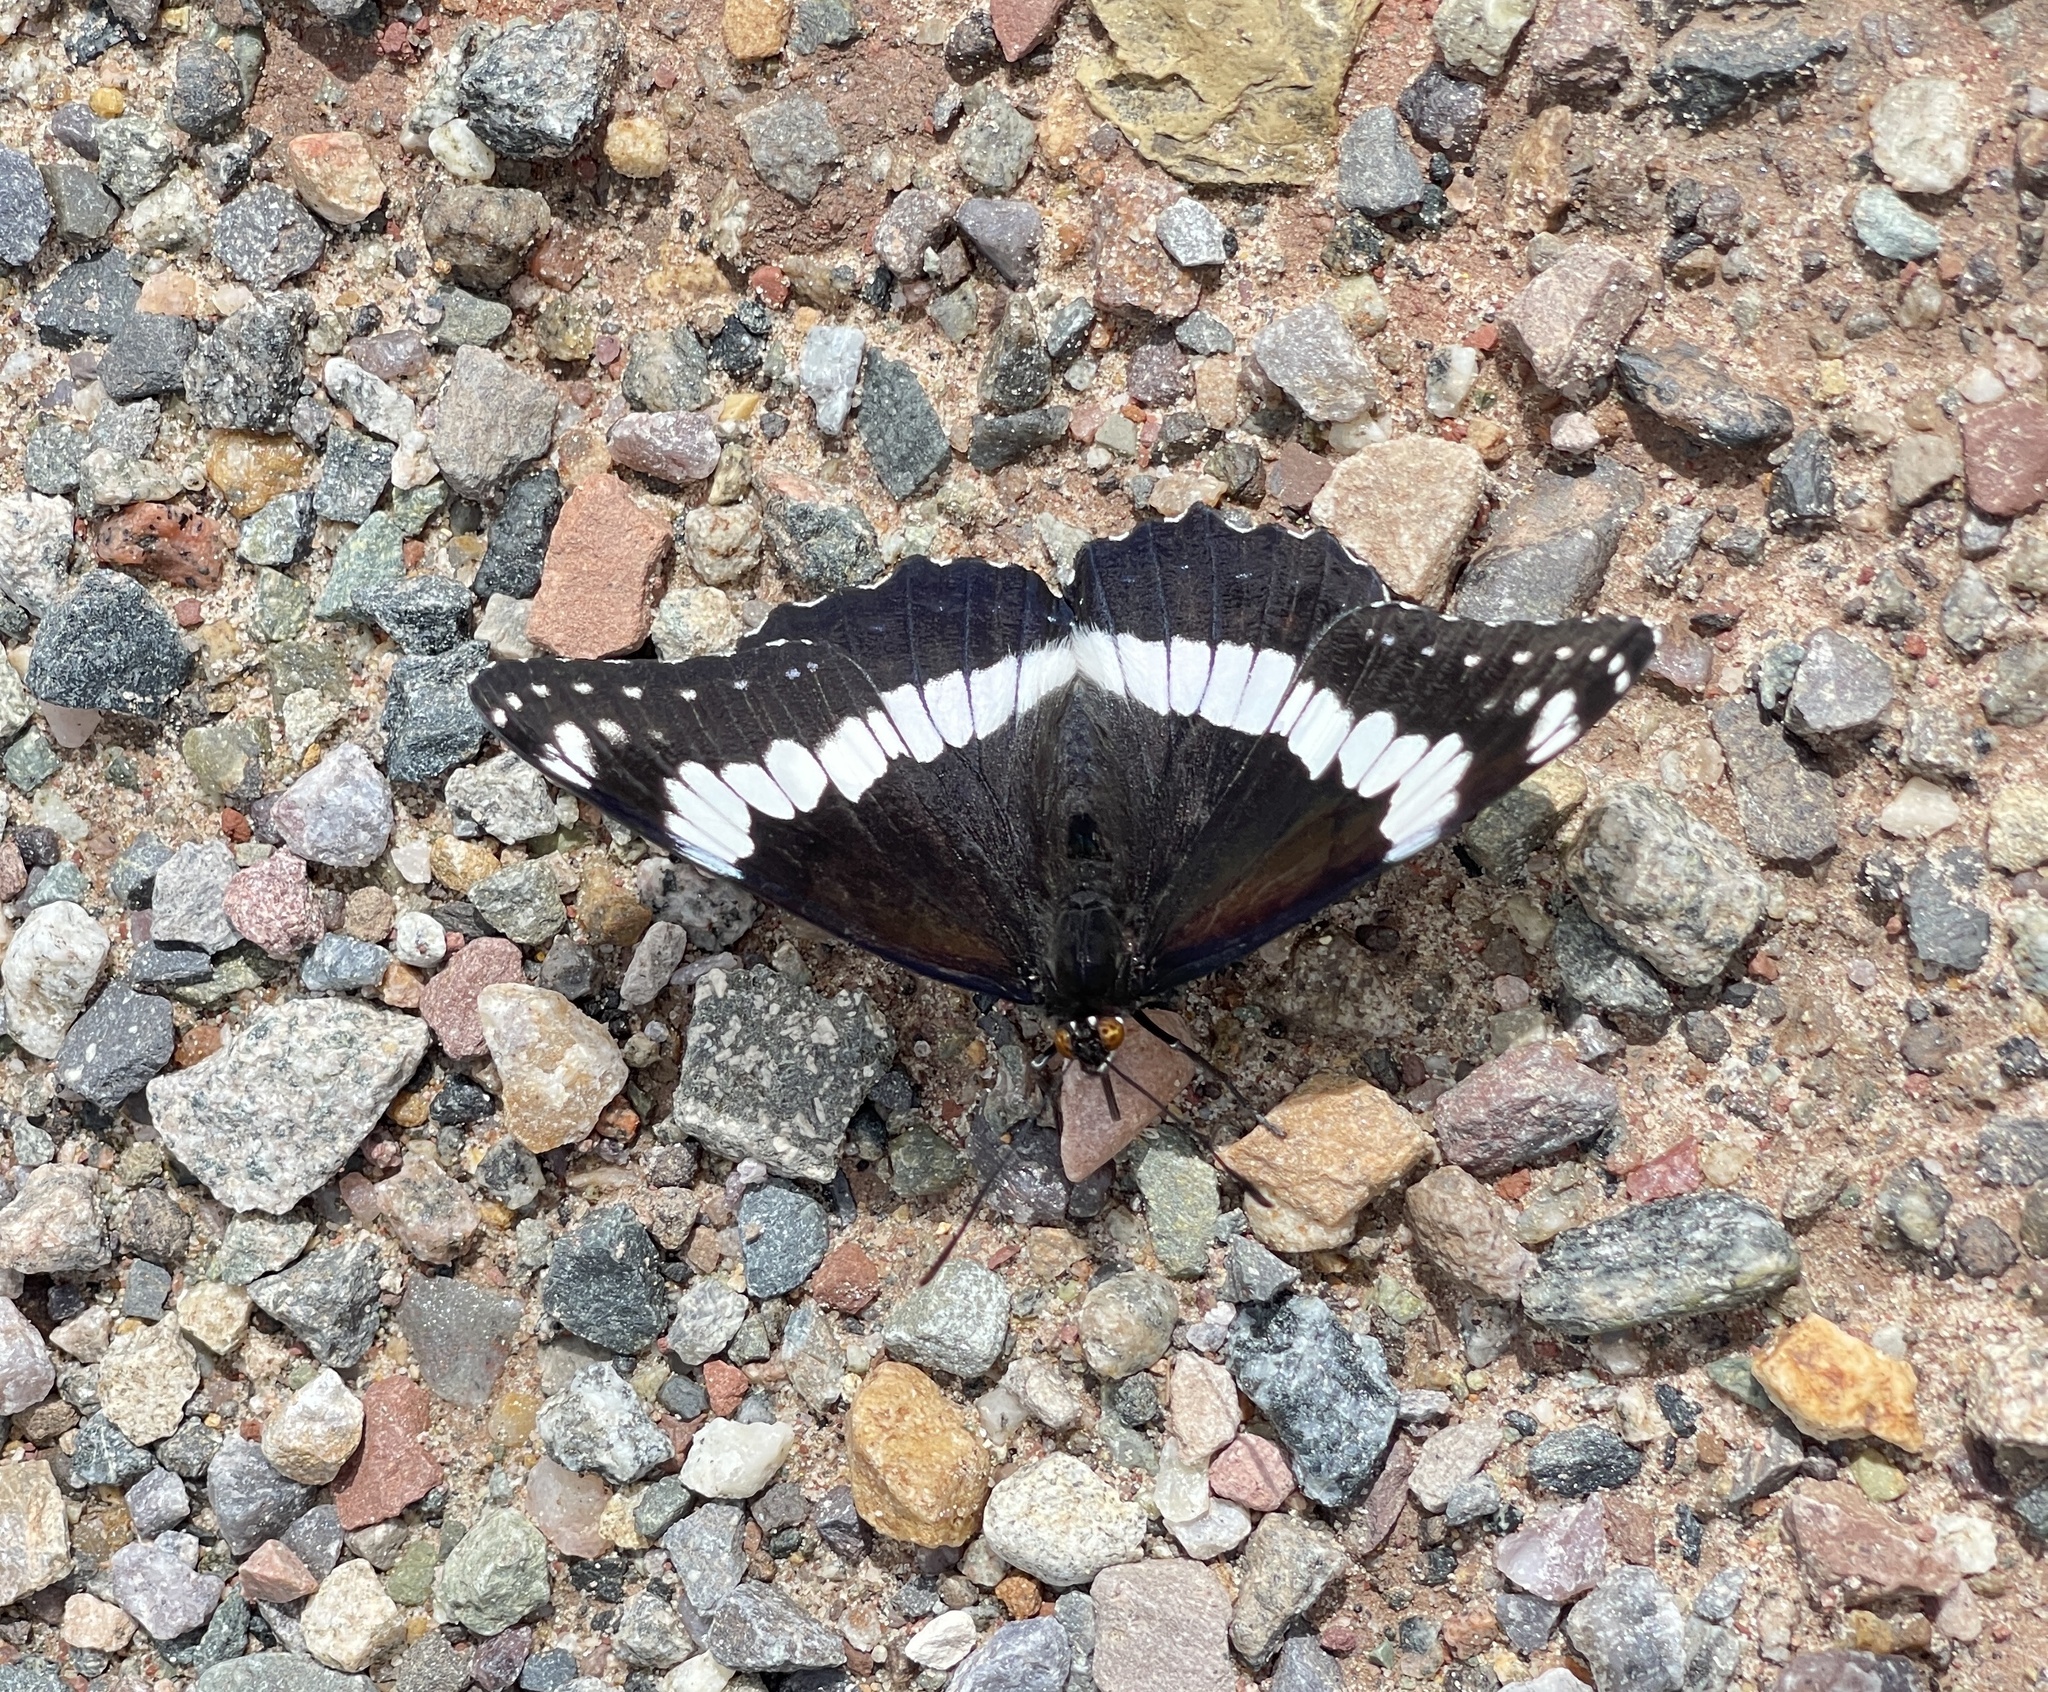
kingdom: Animalia
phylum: Arthropoda
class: Insecta
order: Lepidoptera
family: Nymphalidae
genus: Limenitis
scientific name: Limenitis weidemeyerii
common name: Weidemeyer's admiral
